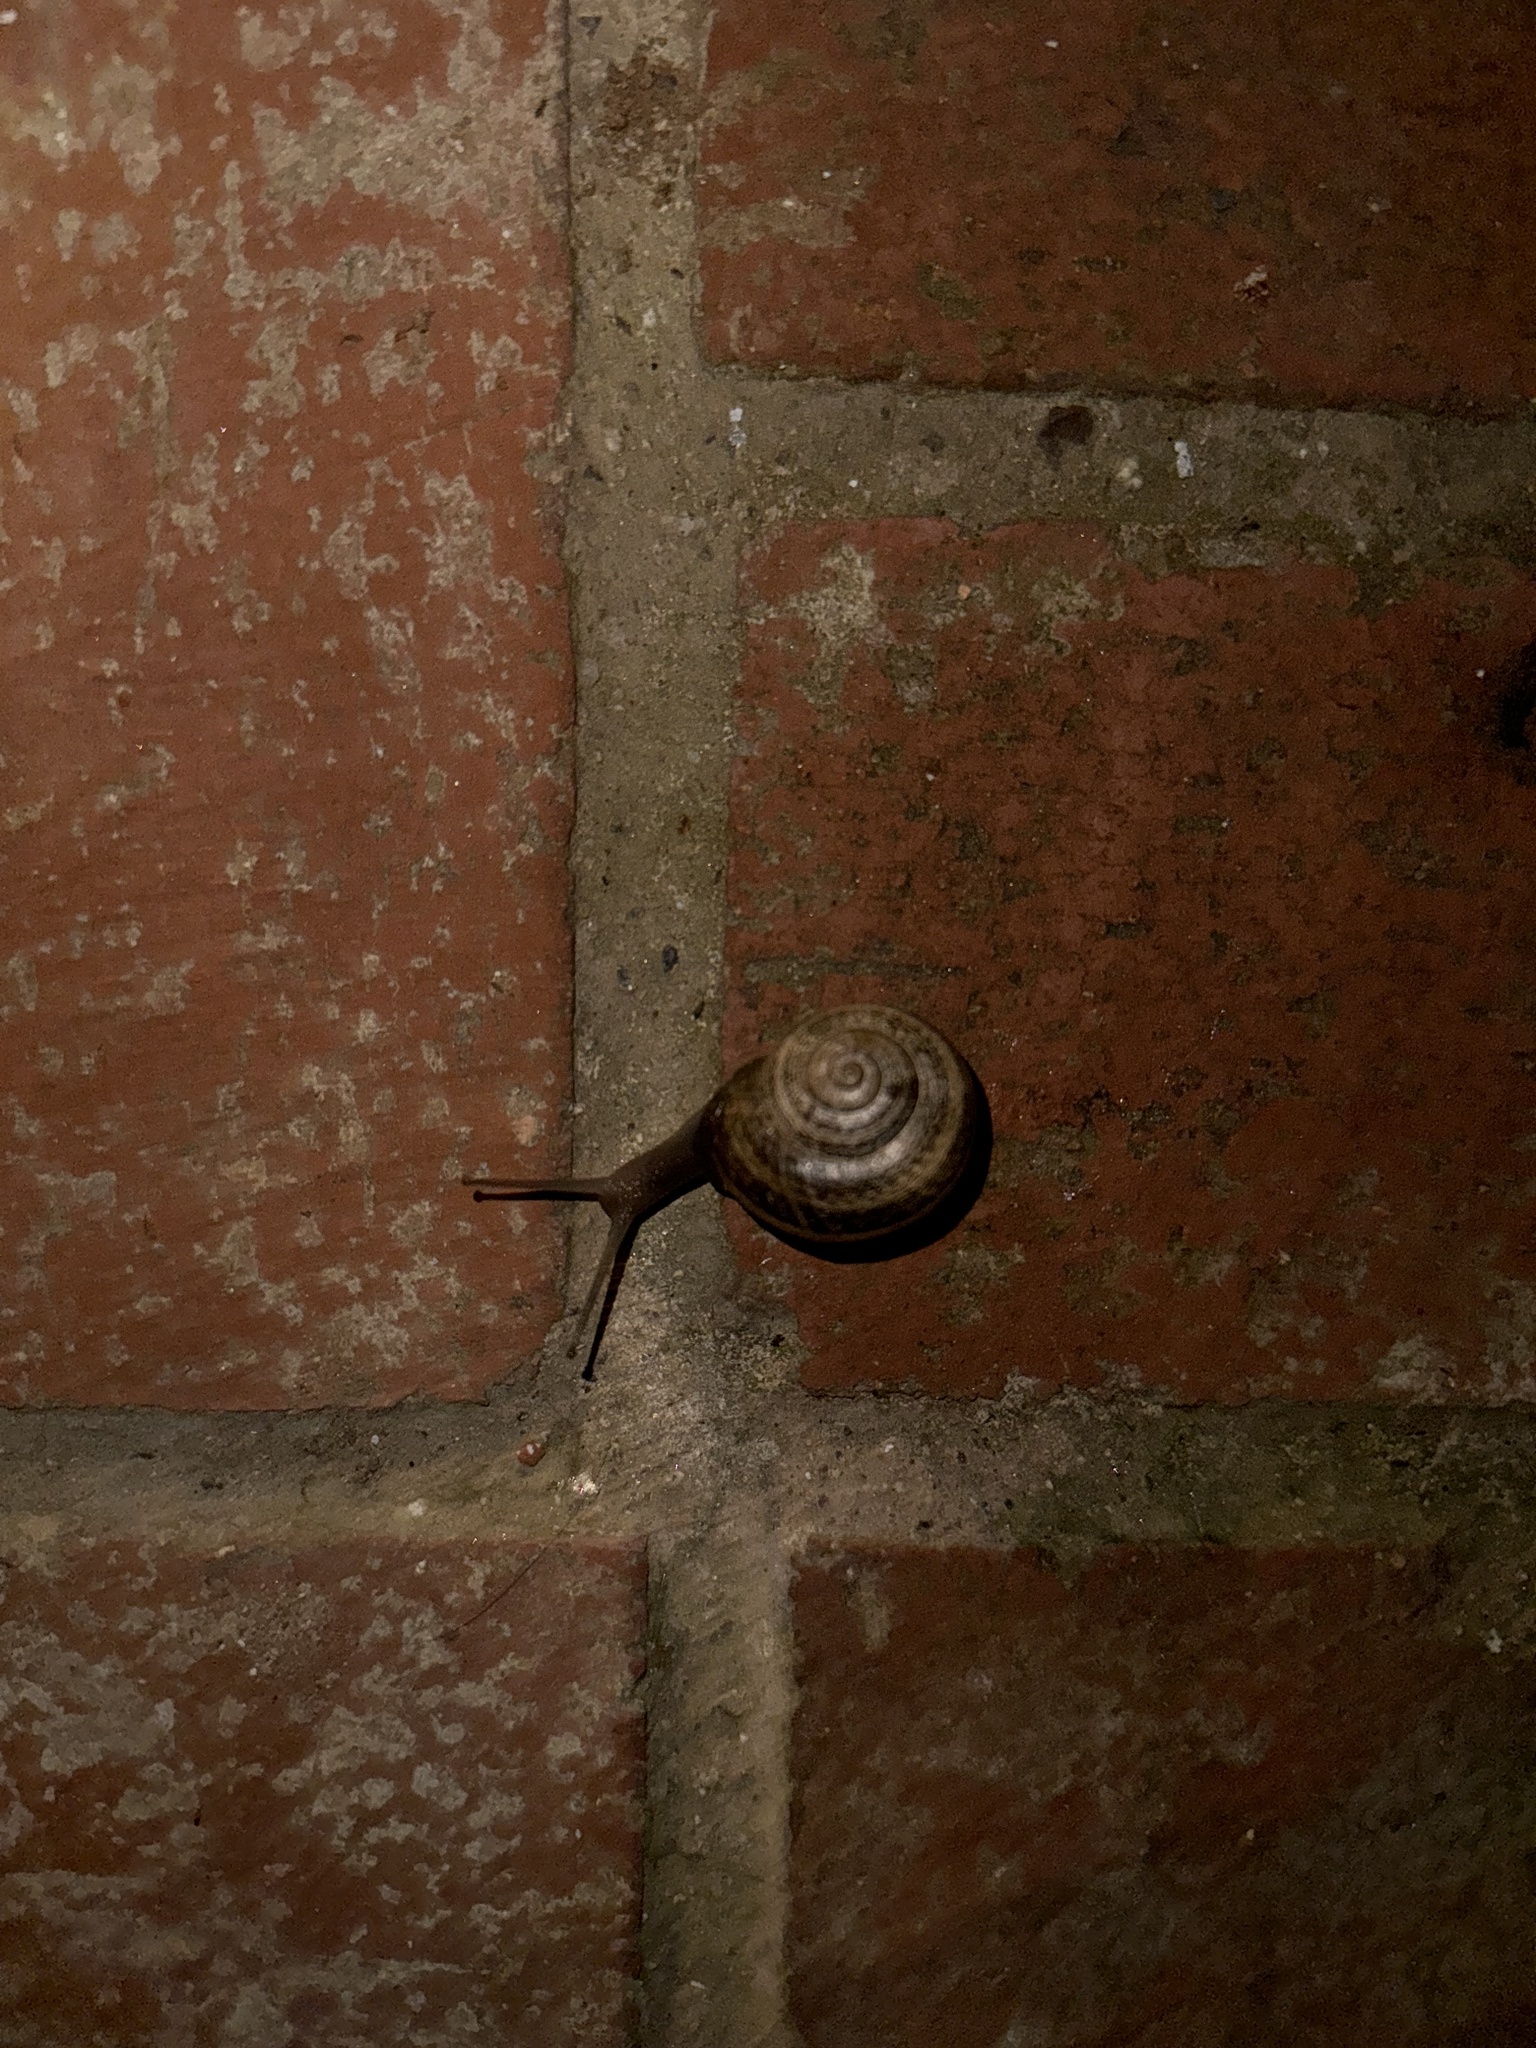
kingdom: Animalia
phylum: Mollusca
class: Gastropoda
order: Stylommatophora
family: Helicidae
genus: Otala
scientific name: Otala lactea
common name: Milk snail
